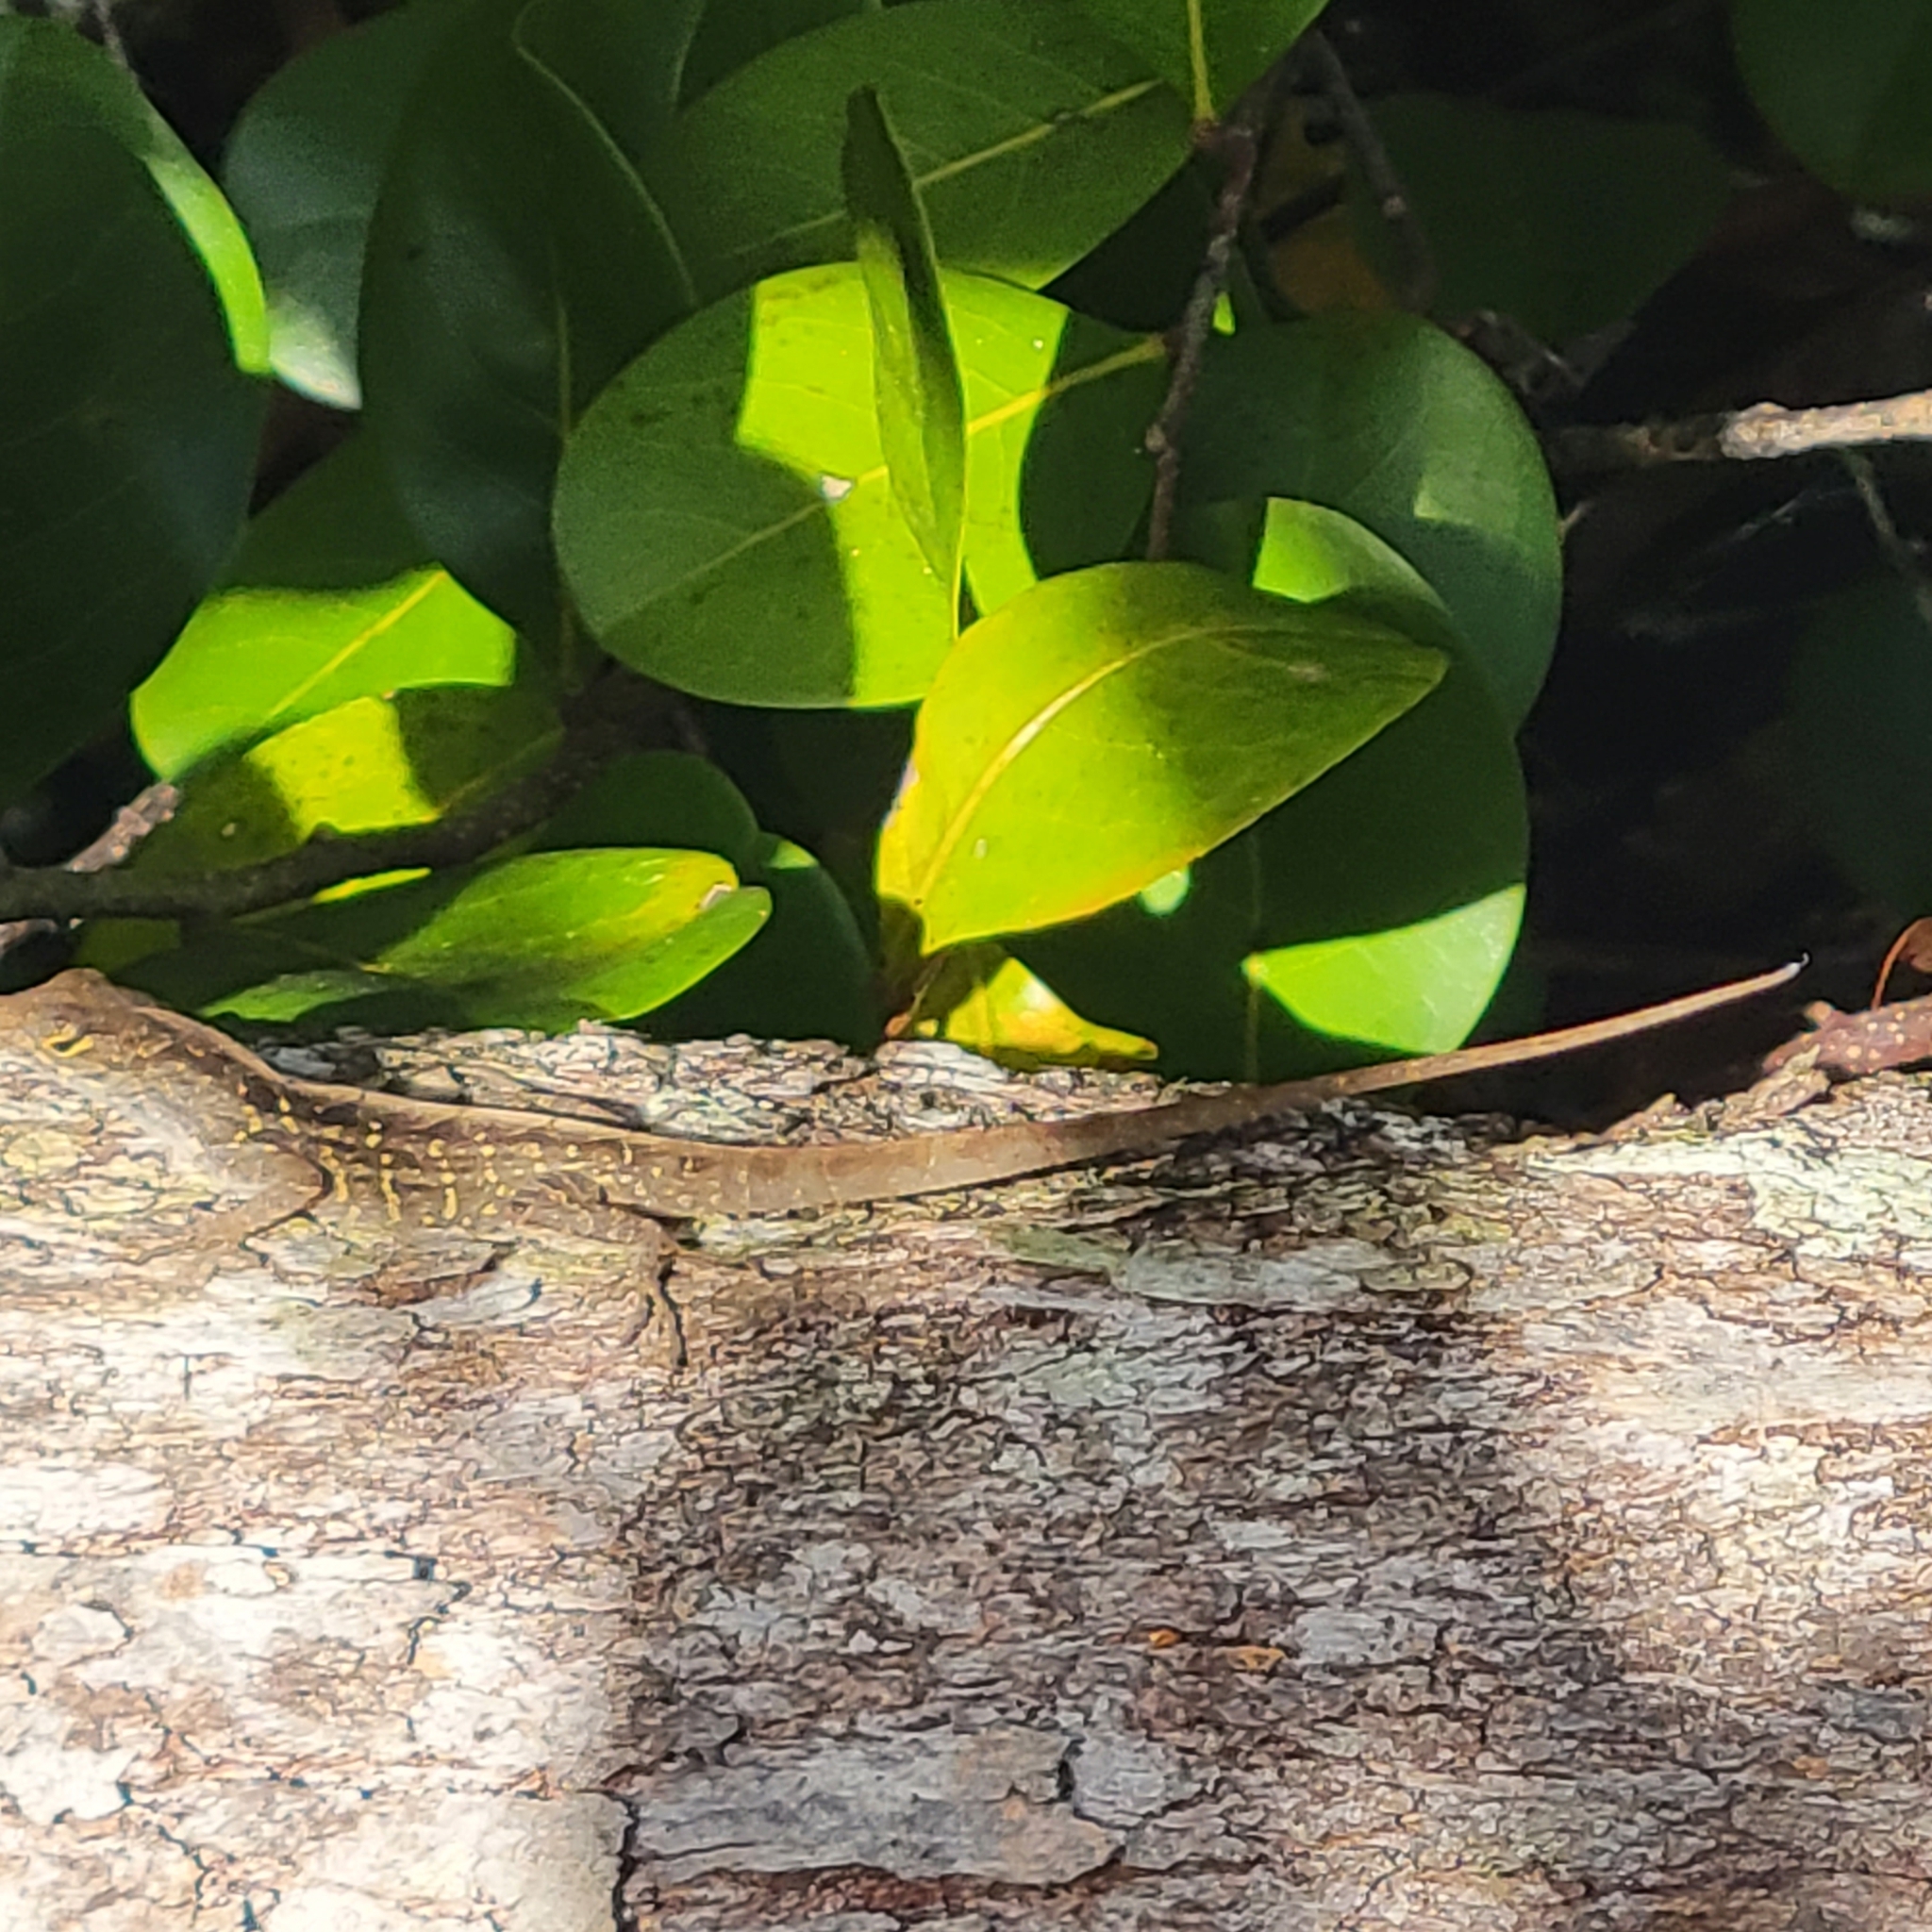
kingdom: Animalia
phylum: Chordata
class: Squamata
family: Dactyloidae
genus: Anolis
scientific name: Anolis sagrei
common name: Brown anole
